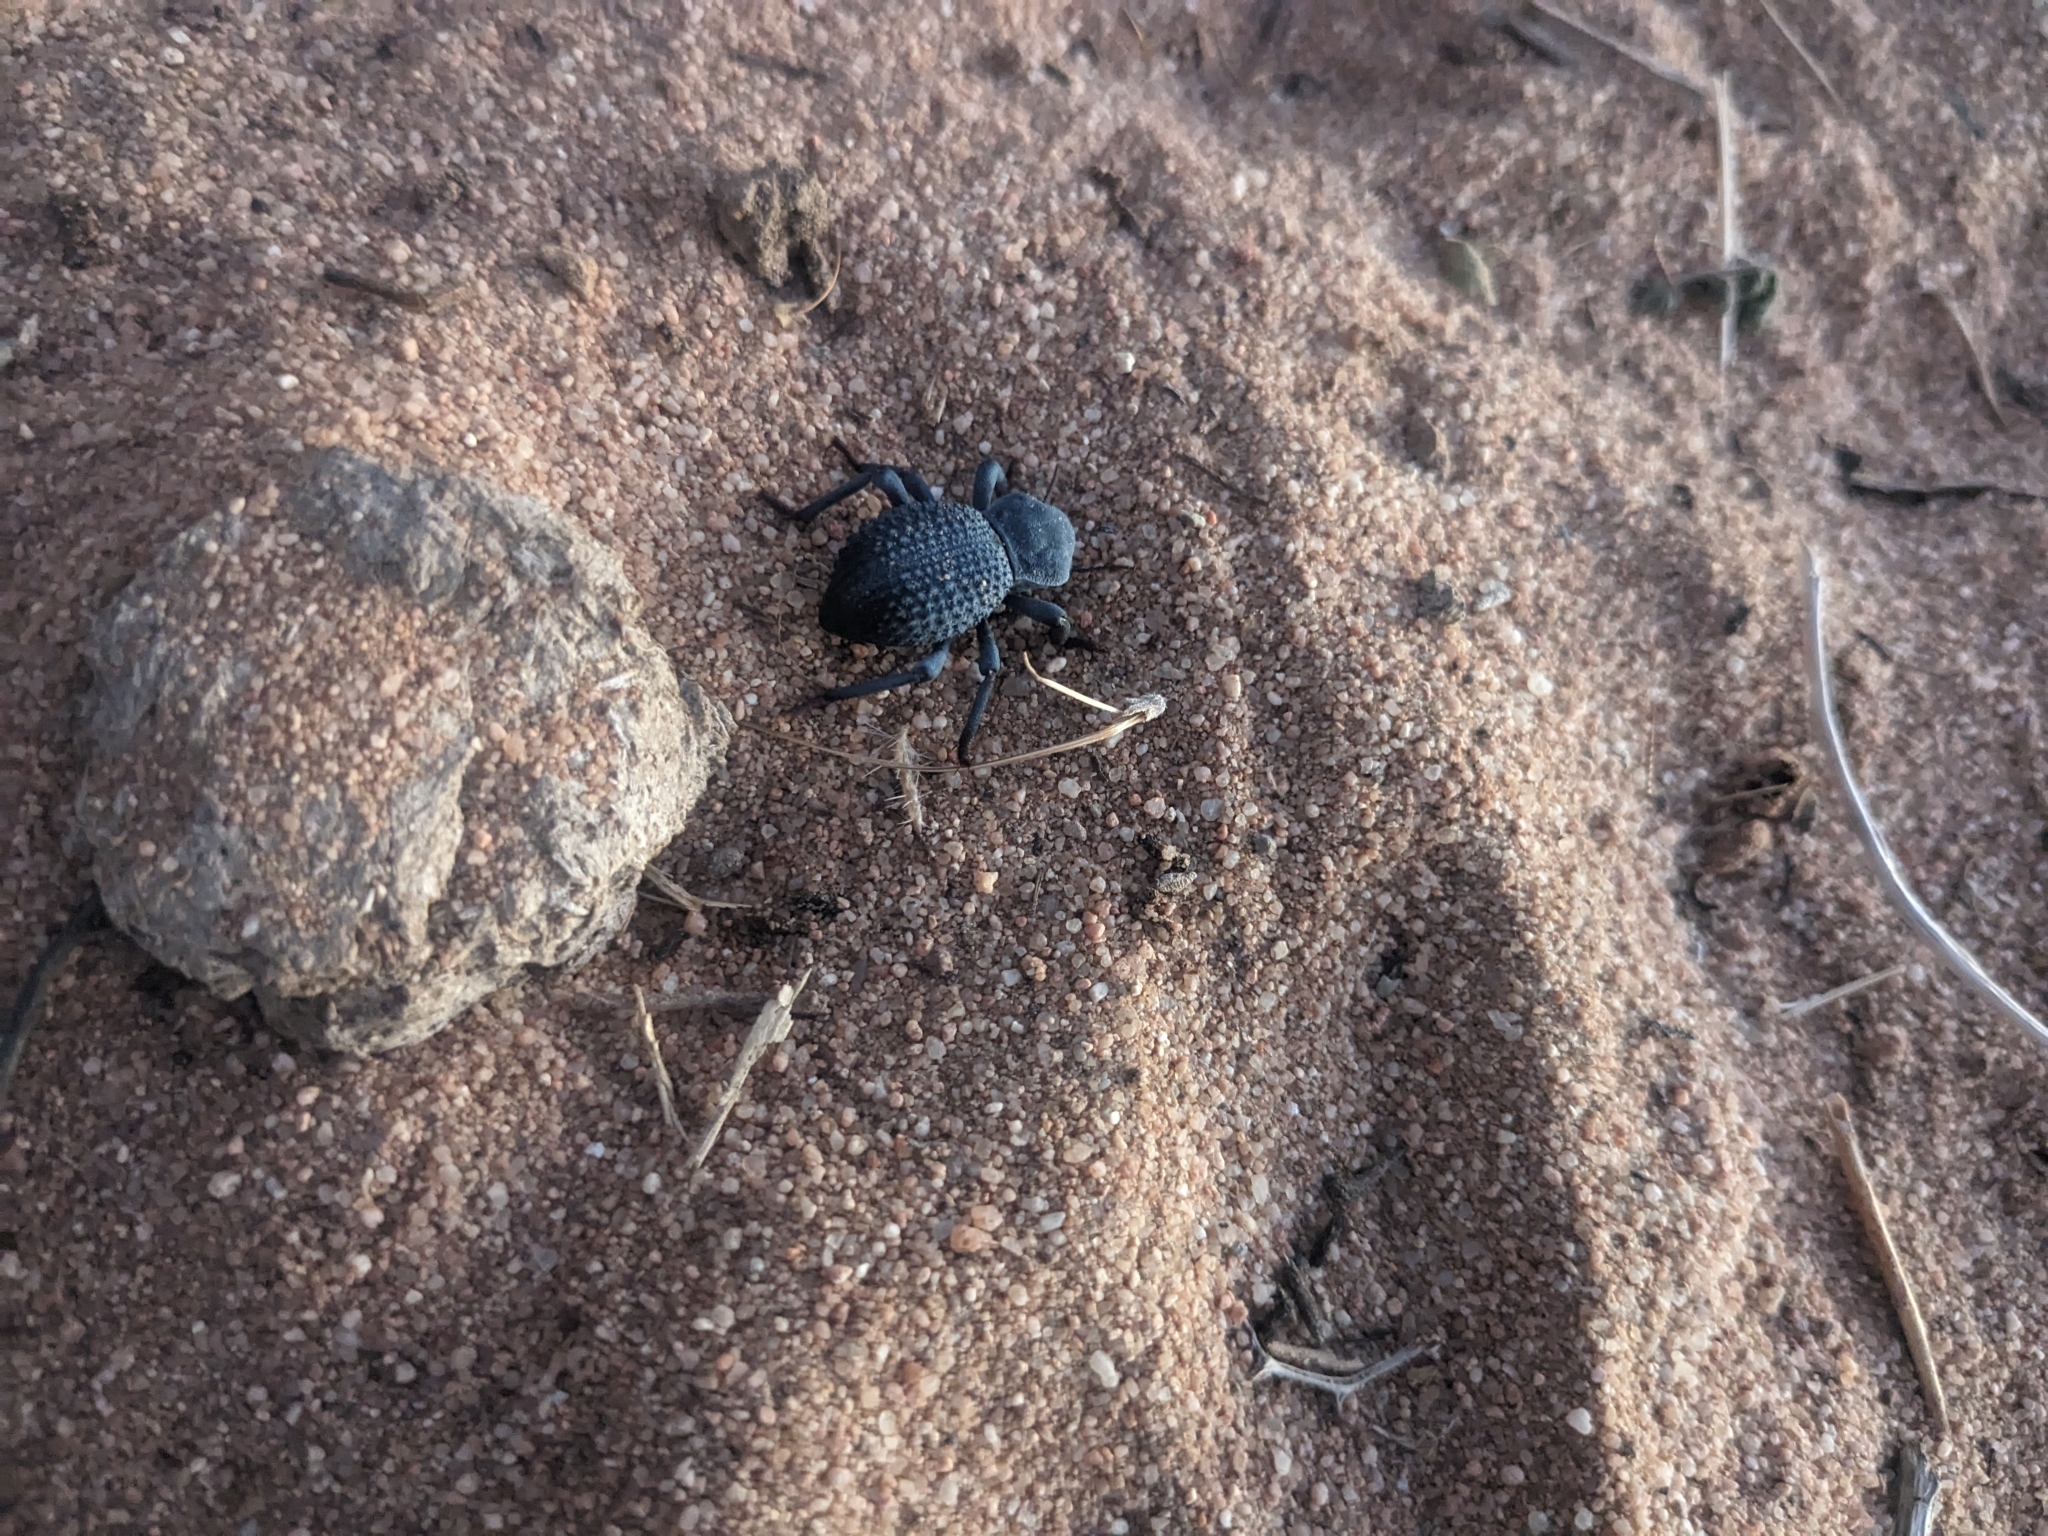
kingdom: Animalia
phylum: Arthropoda
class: Insecta
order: Coleoptera
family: Tenebrionidae
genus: Asbolus
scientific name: Asbolus verrucosus
